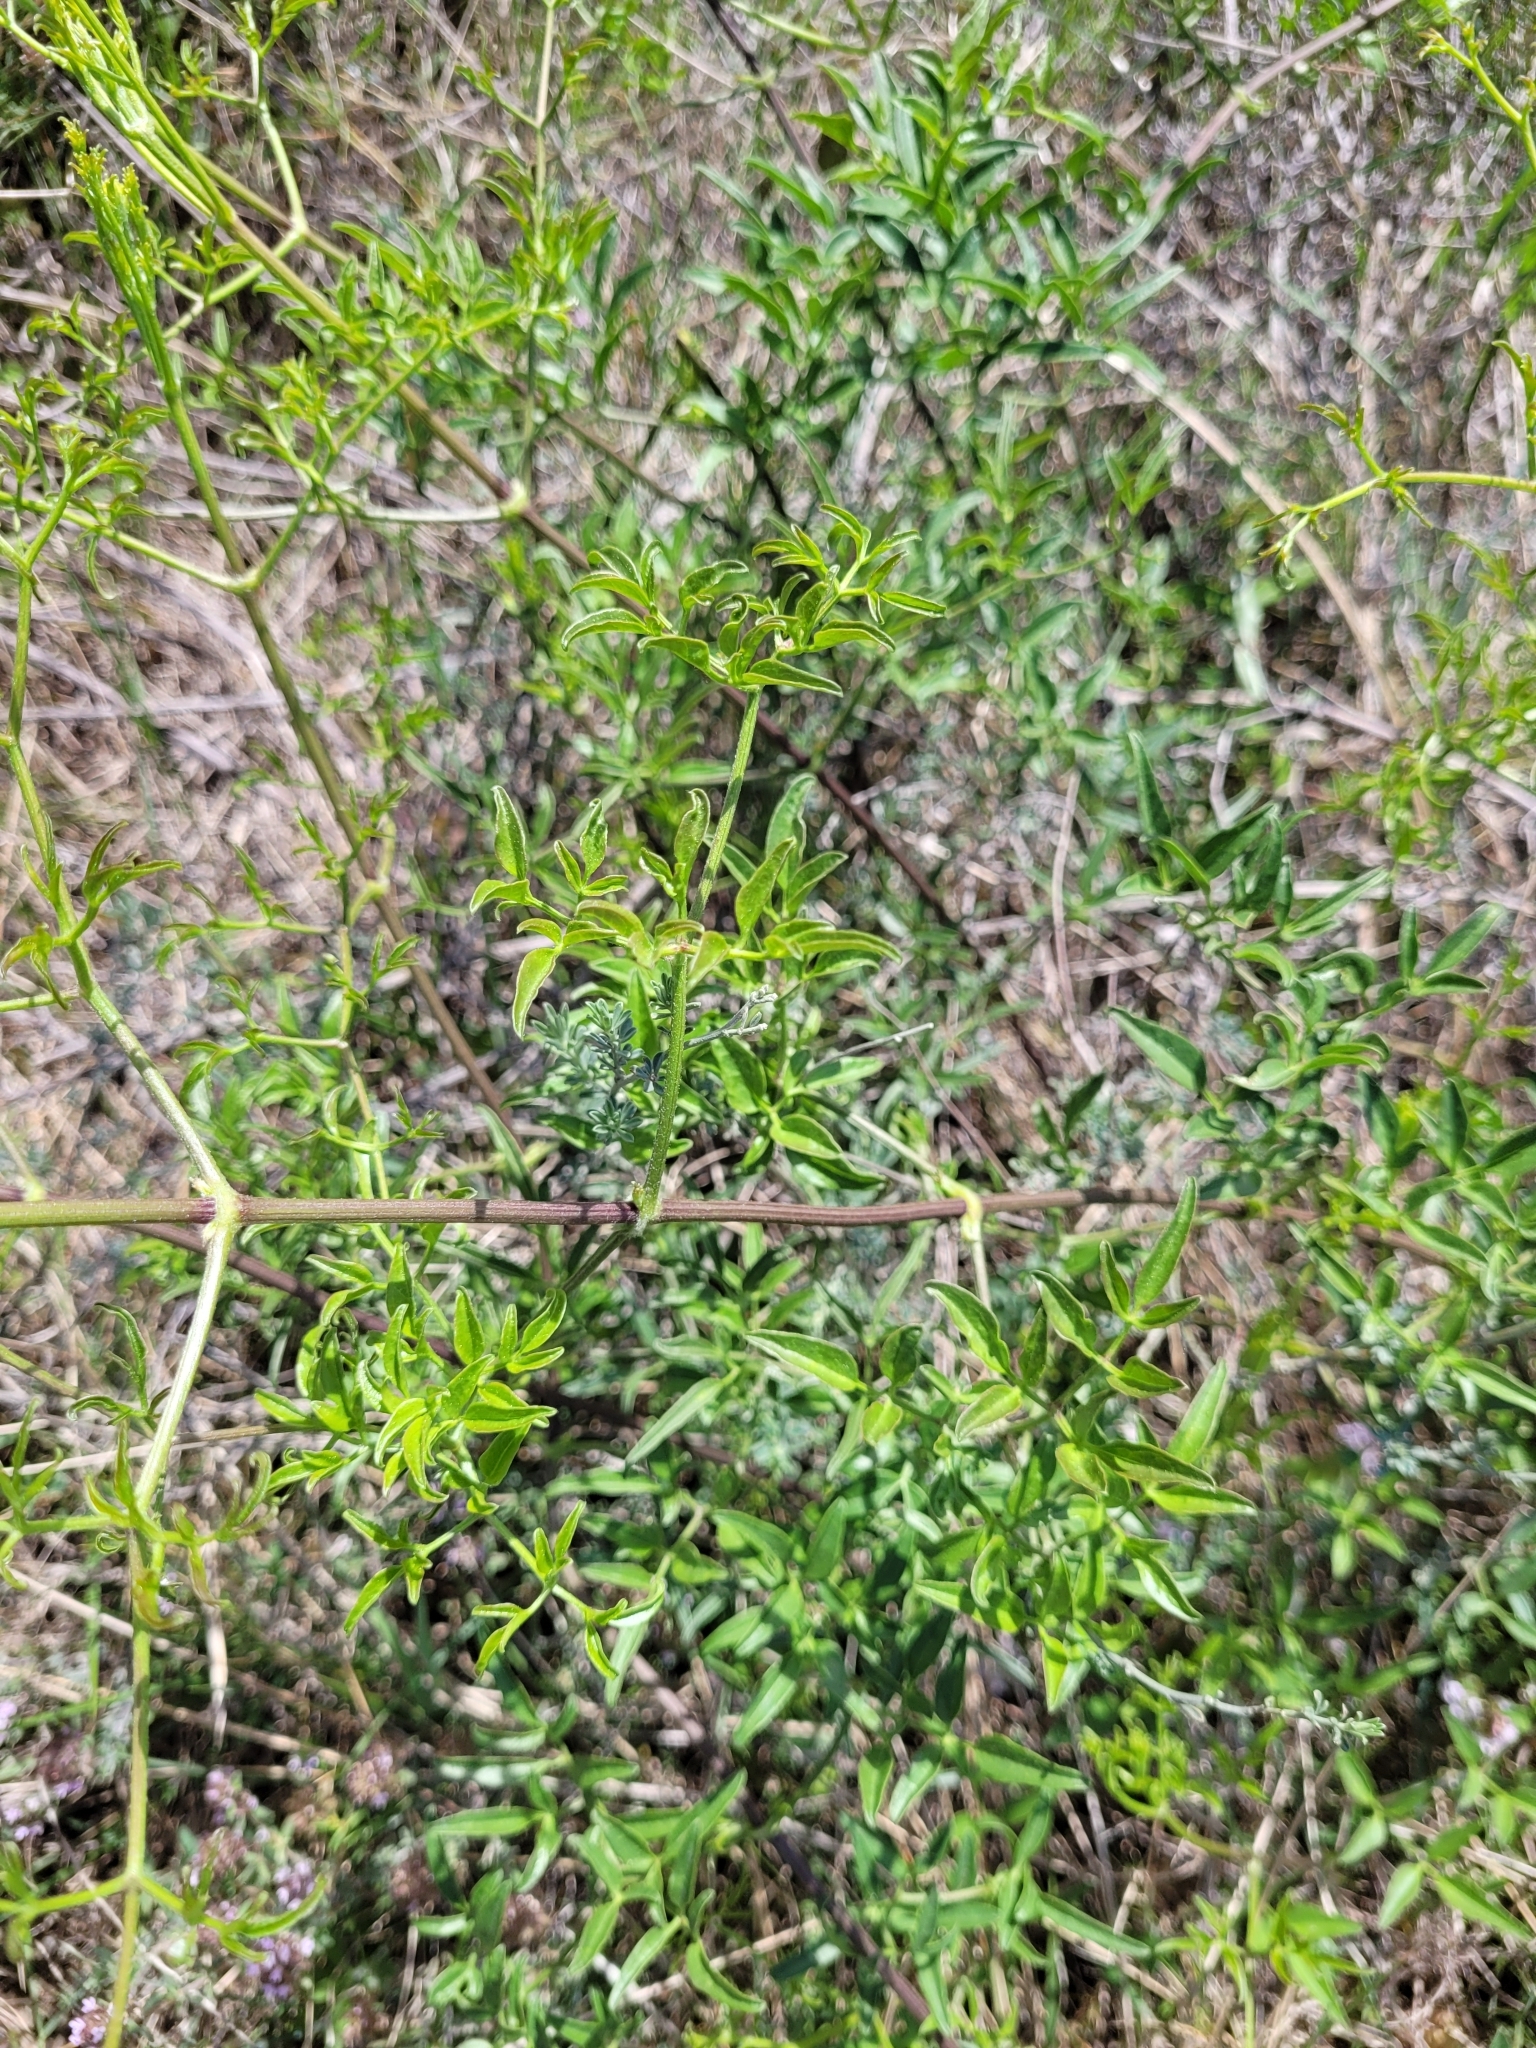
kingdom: Plantae
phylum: Tracheophyta
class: Magnoliopsida
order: Ranunculales
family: Ranunculaceae
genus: Clematis
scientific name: Clematis flammula
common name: Virgin's-bower
